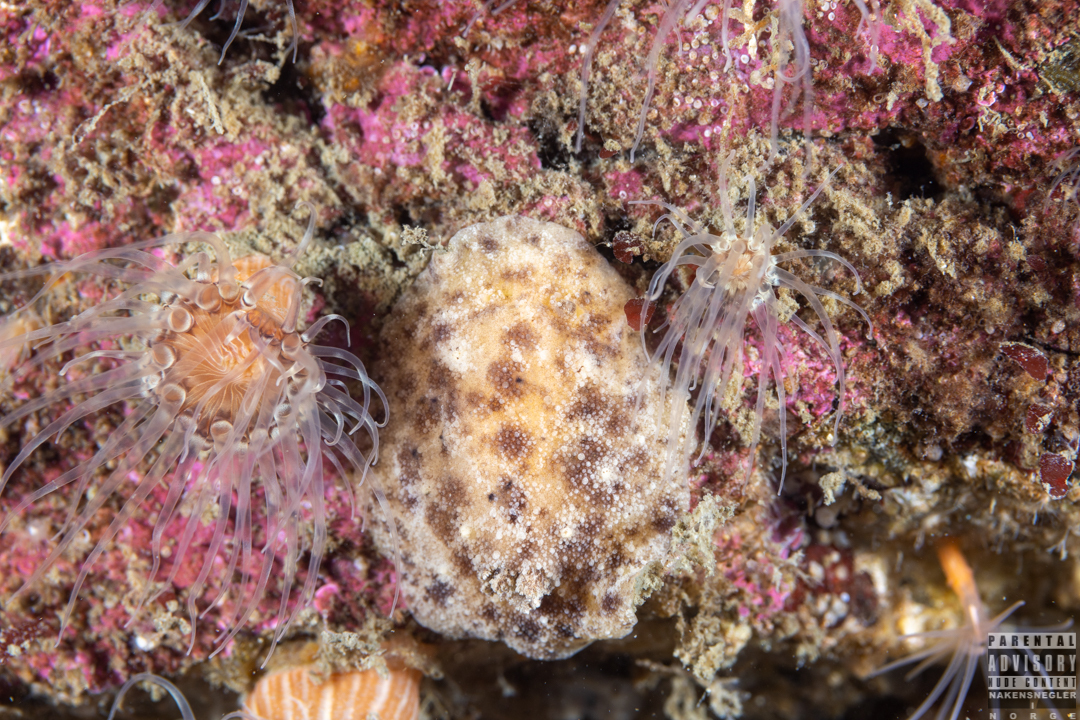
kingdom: Animalia
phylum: Mollusca
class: Gastropoda
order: Nudibranchia
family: Discodorididae
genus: Geitodoris
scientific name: Geitodoris planata
